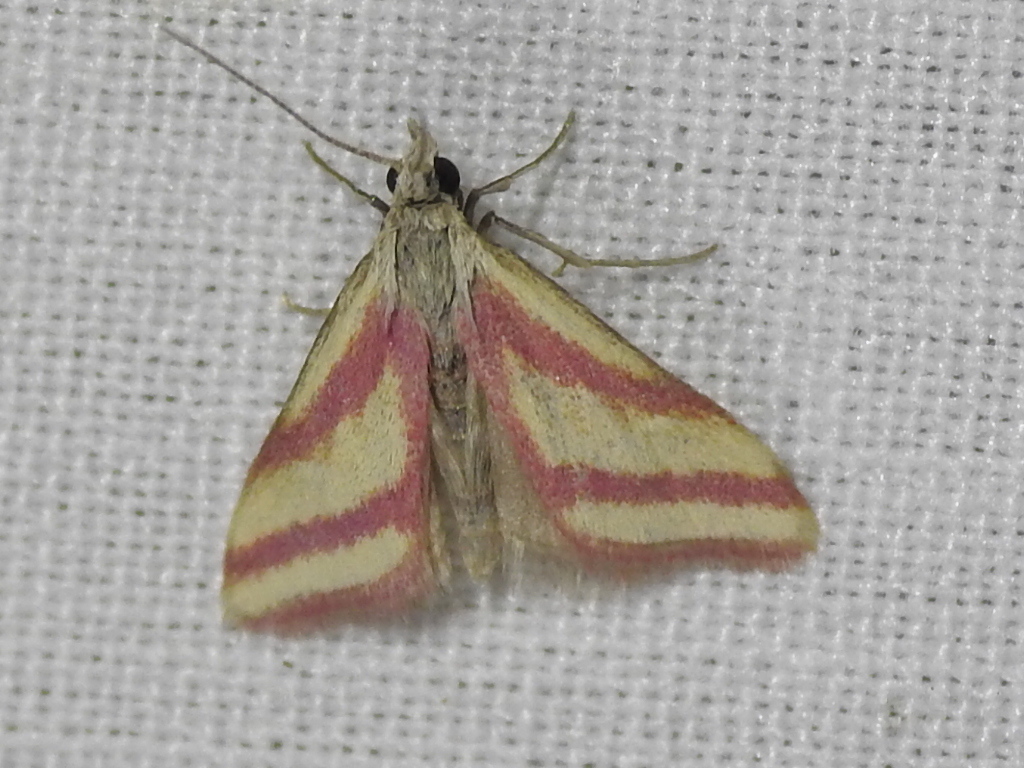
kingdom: Animalia
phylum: Arthropoda
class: Insecta
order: Lepidoptera
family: Crambidae
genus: Microtheoris
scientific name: Microtheoris vibicalis
